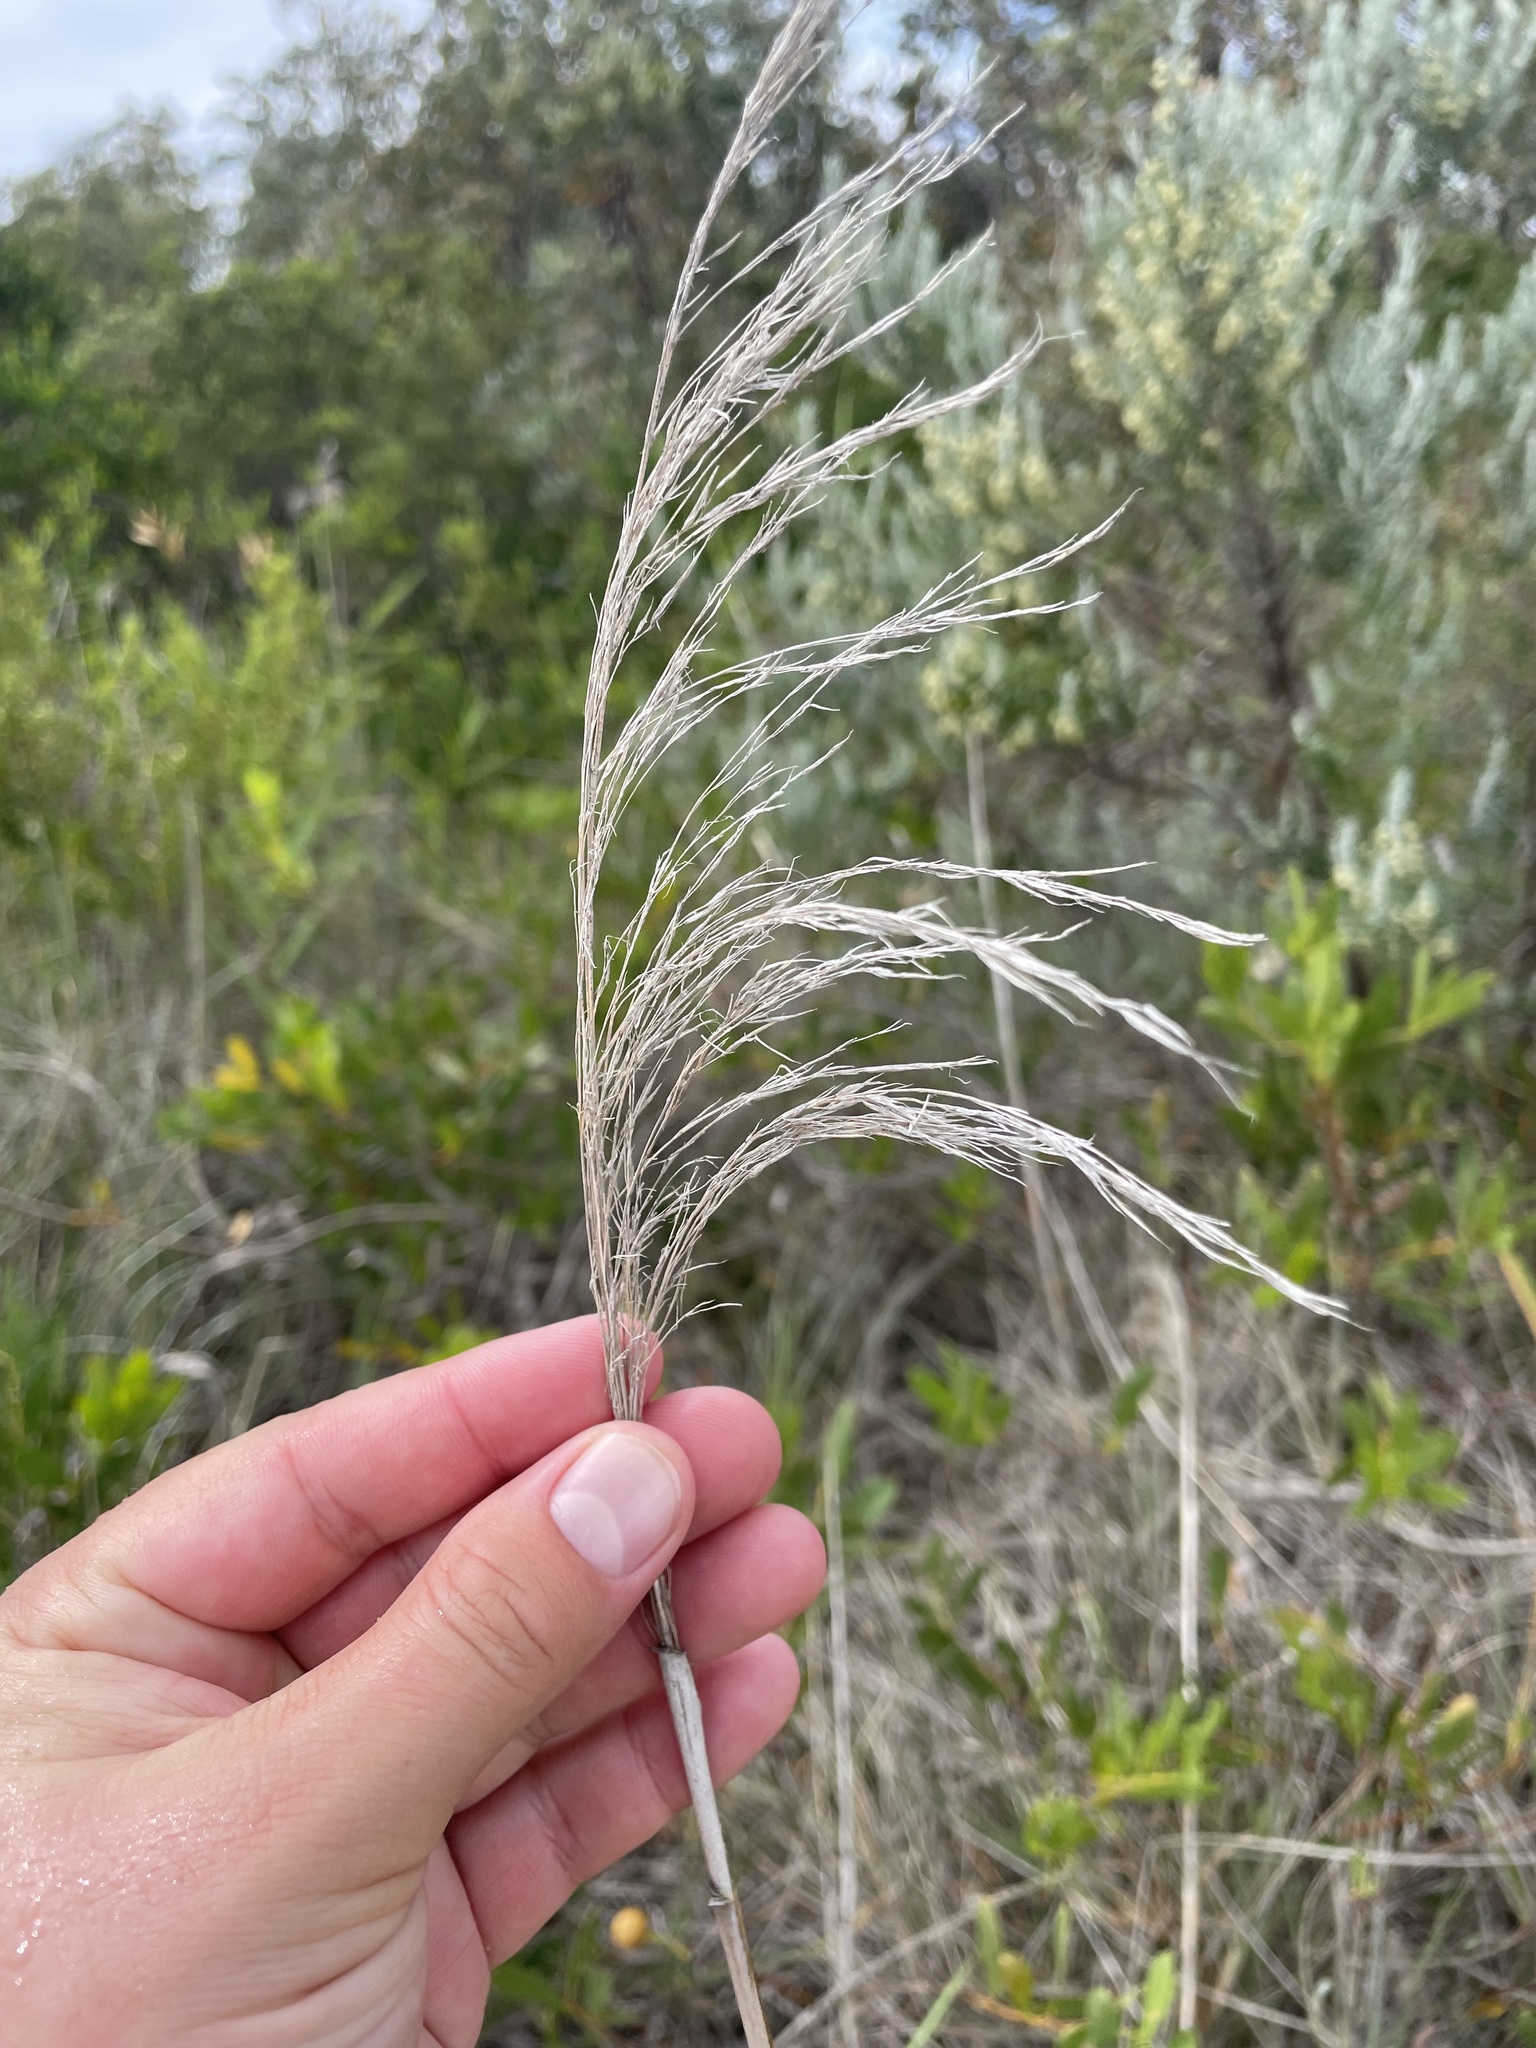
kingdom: Plantae
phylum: Tracheophyta
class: Liliopsida
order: Poales
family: Poaceae
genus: Phragmites
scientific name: Phragmites australis
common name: Common reed
